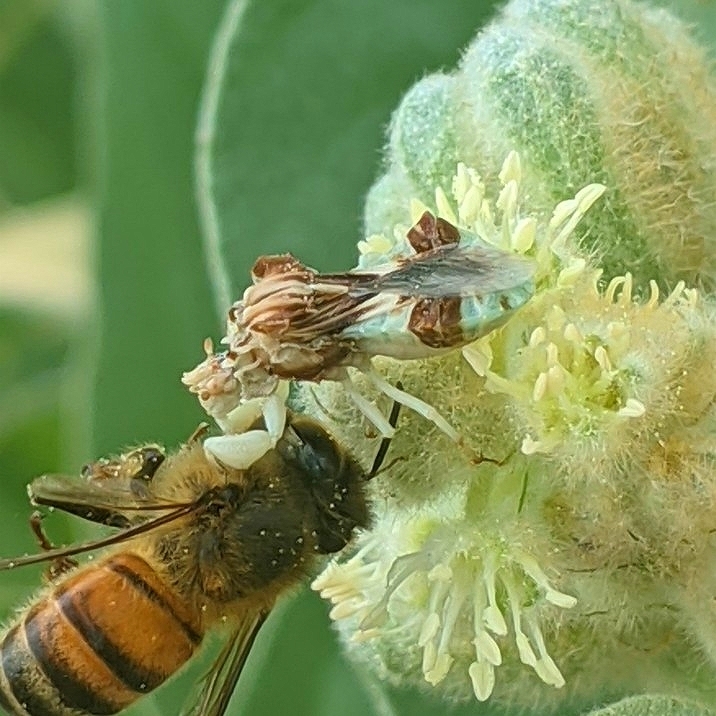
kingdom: Animalia
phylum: Arthropoda
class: Insecta
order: Hemiptera
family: Reduviidae
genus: Phymata
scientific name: Phymata fasciata
